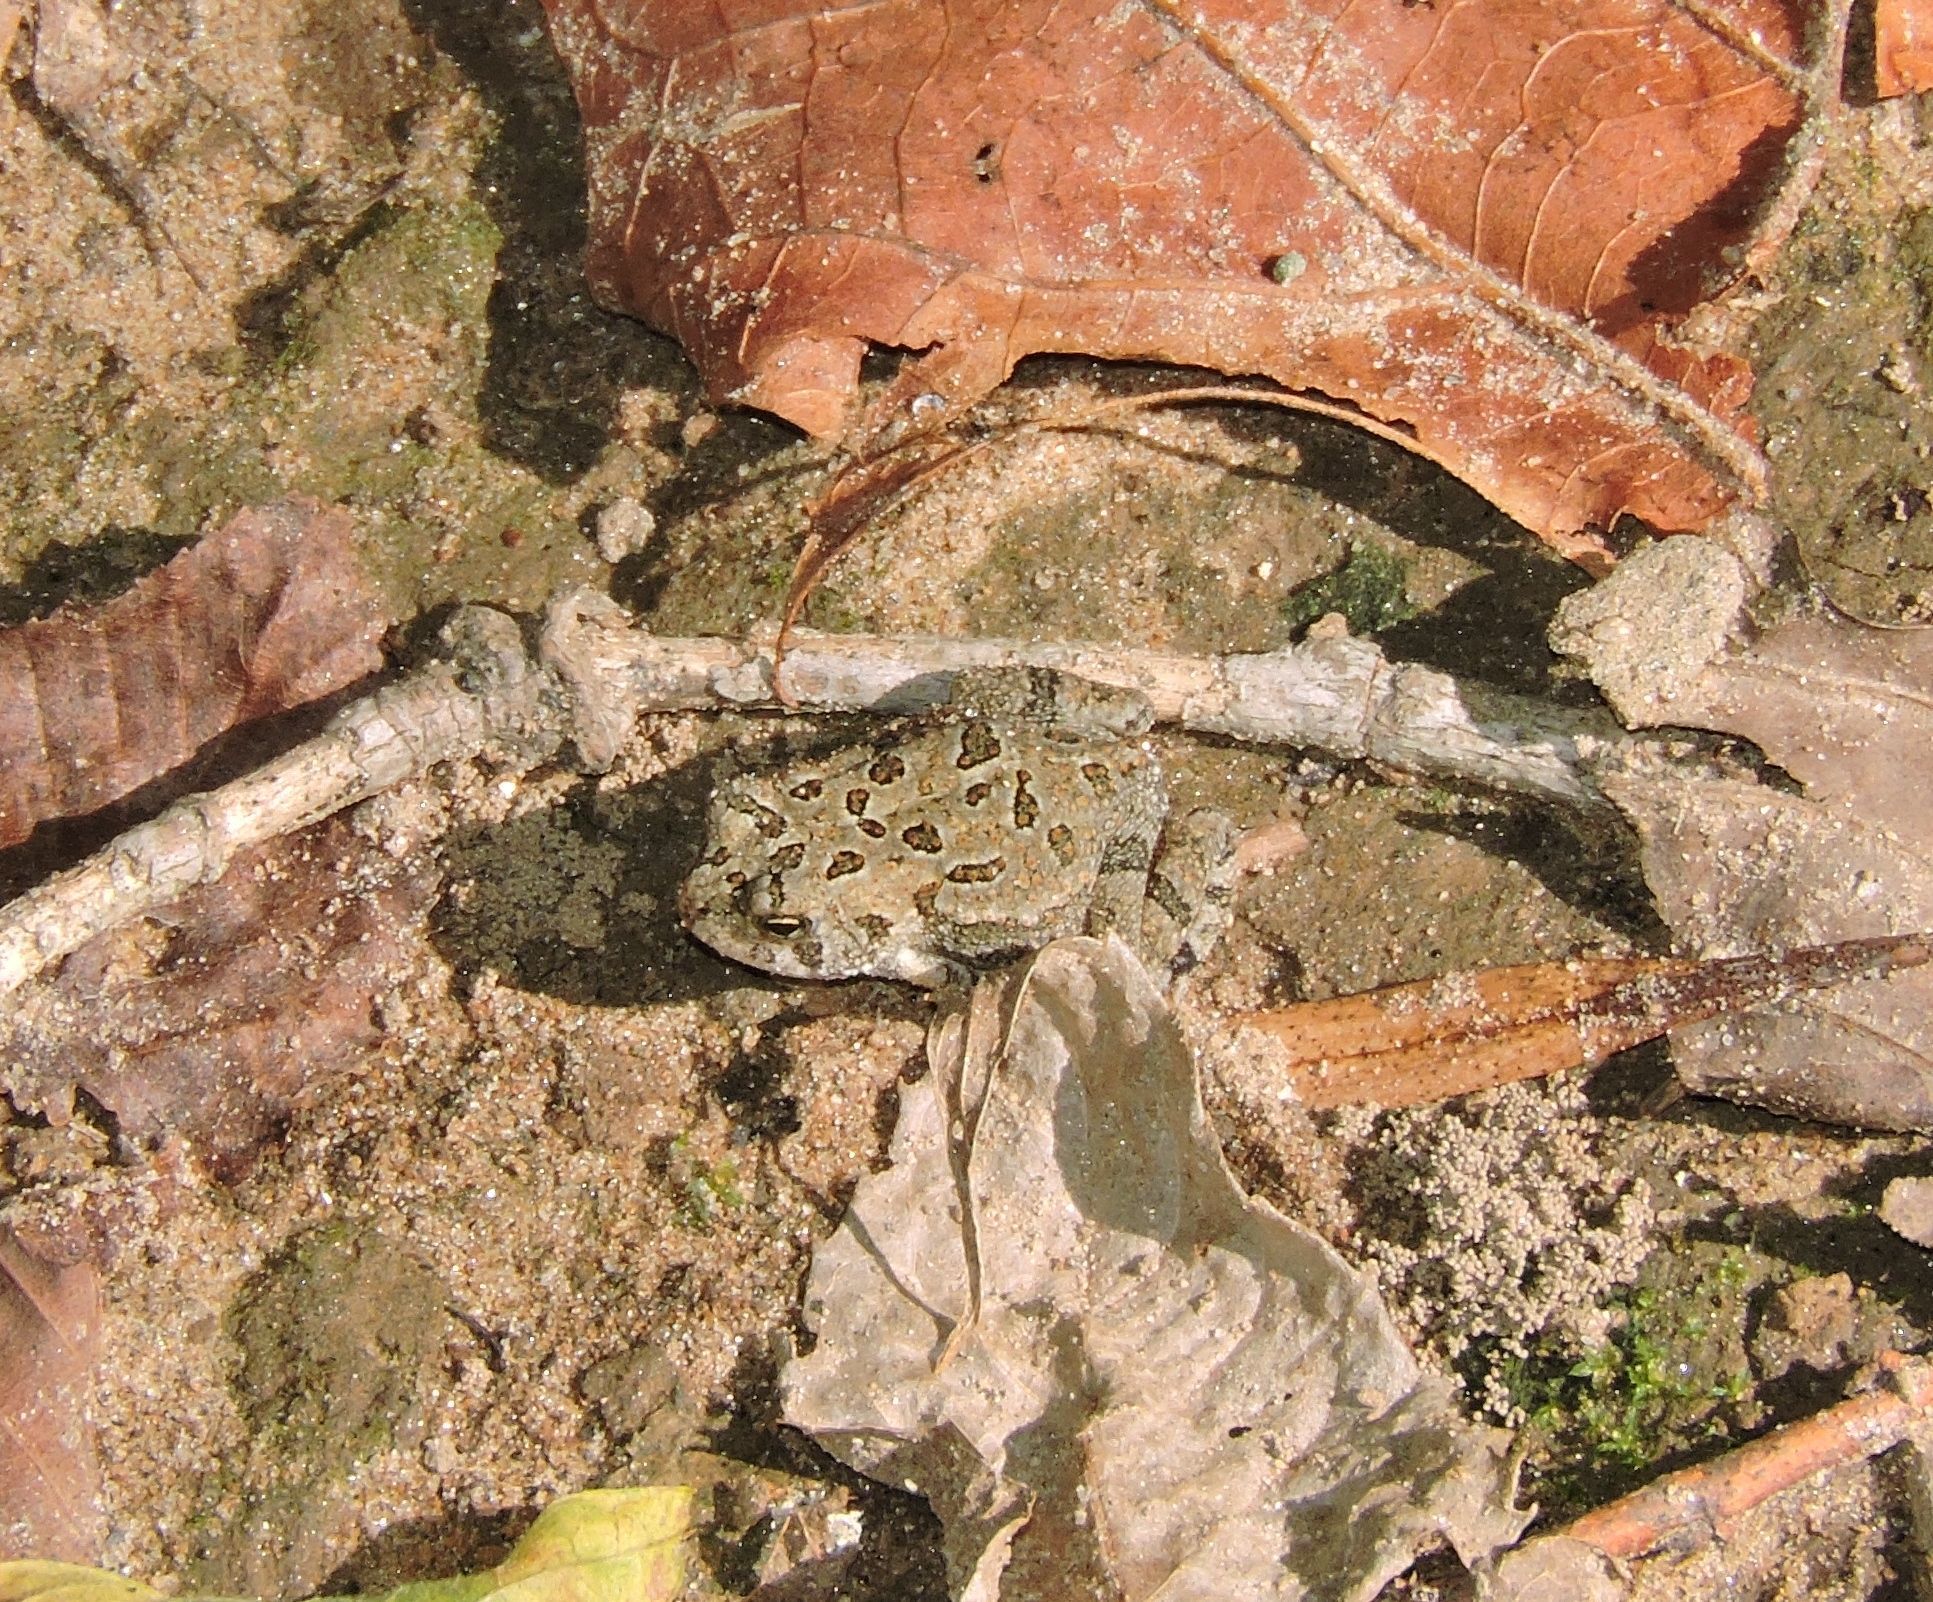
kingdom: Animalia
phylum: Chordata
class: Amphibia
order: Anura
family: Bufonidae
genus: Anaxyrus
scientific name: Anaxyrus fowleri
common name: Fowler's toad
